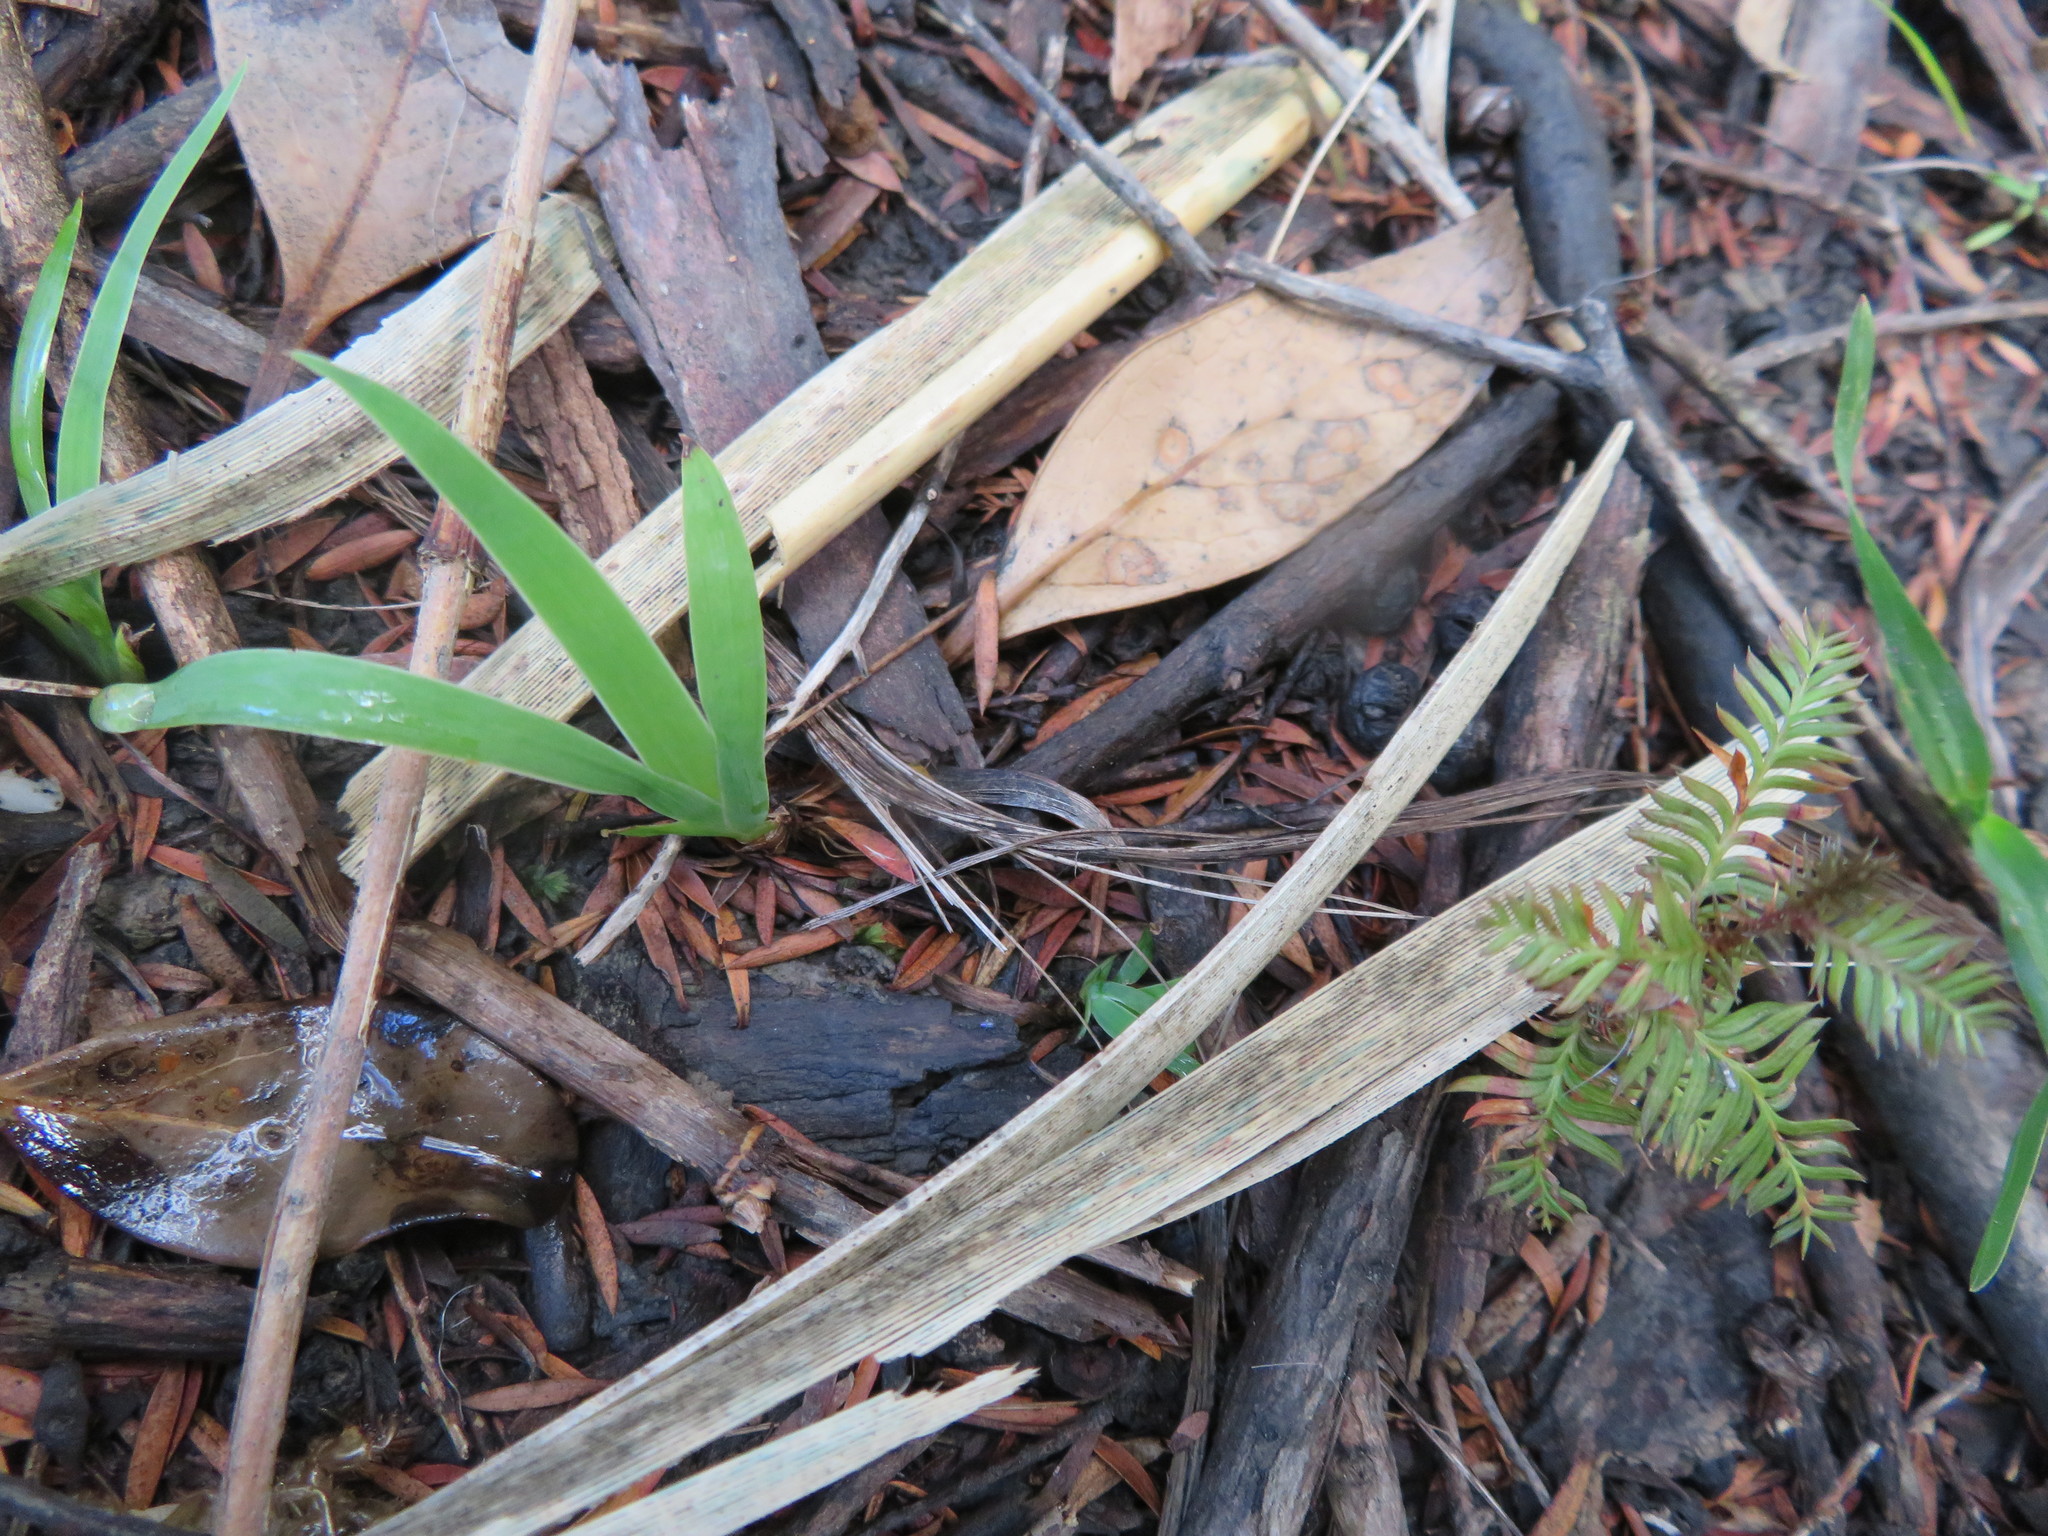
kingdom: Plantae
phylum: Tracheophyta
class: Pinopsida
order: Pinales
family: Podocarpaceae
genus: Dacrycarpus
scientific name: Dacrycarpus dacrydioides
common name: White pine
